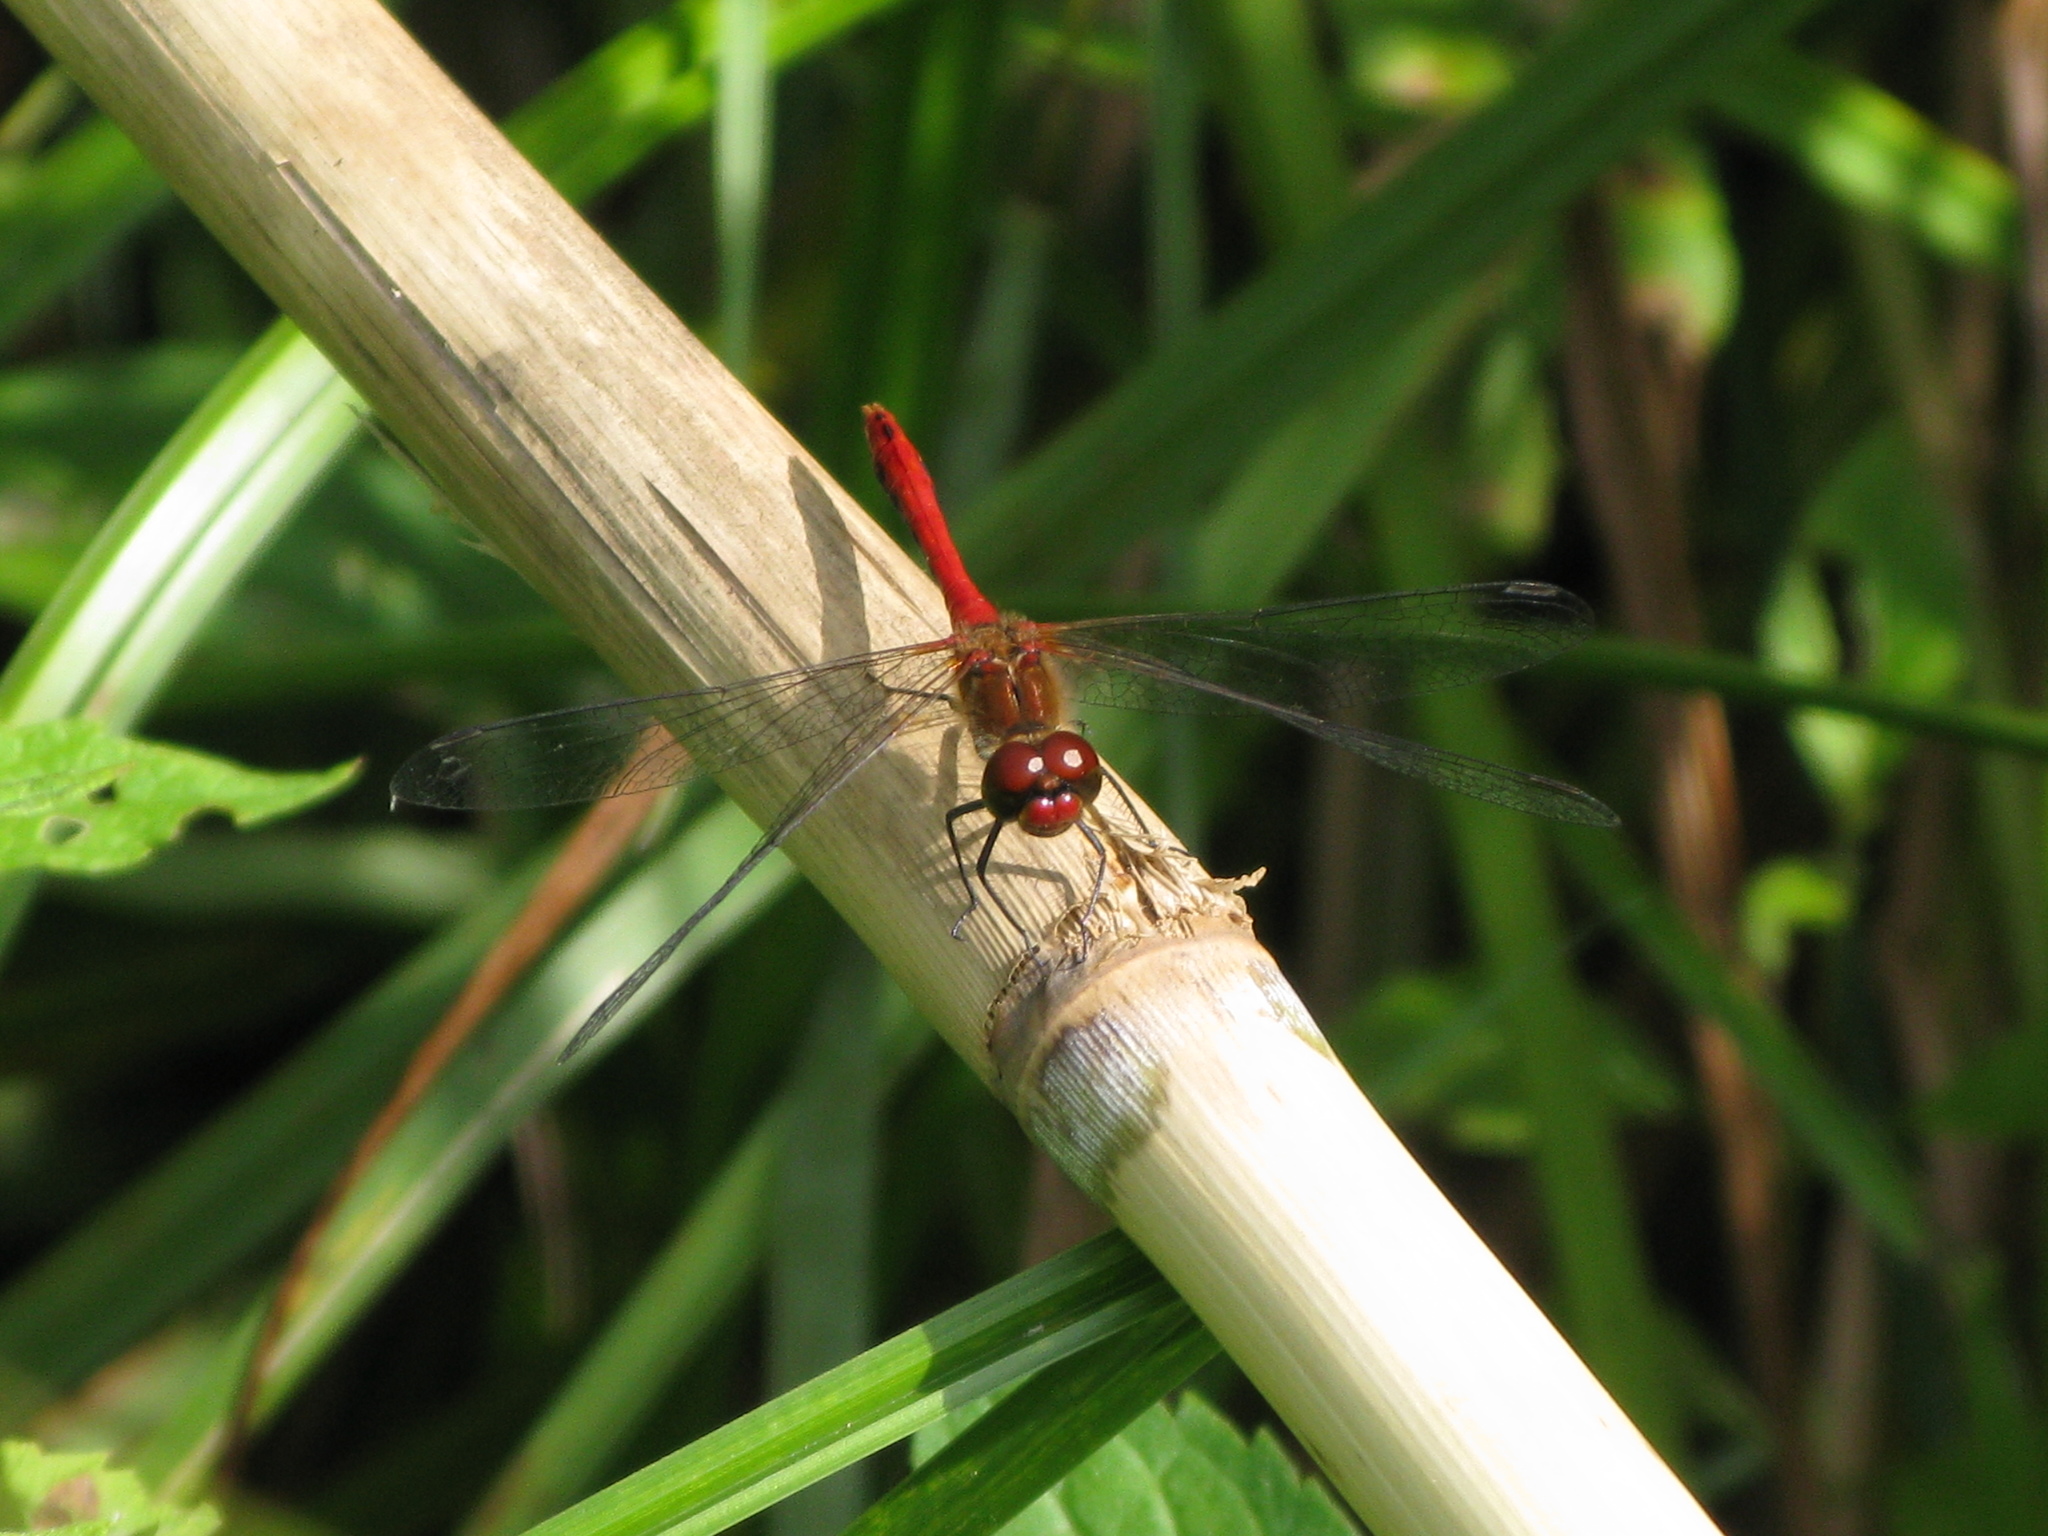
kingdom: Animalia
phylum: Arthropoda
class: Insecta
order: Odonata
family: Libellulidae
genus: Sympetrum
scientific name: Sympetrum sanguineum
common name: Ruddy darter
